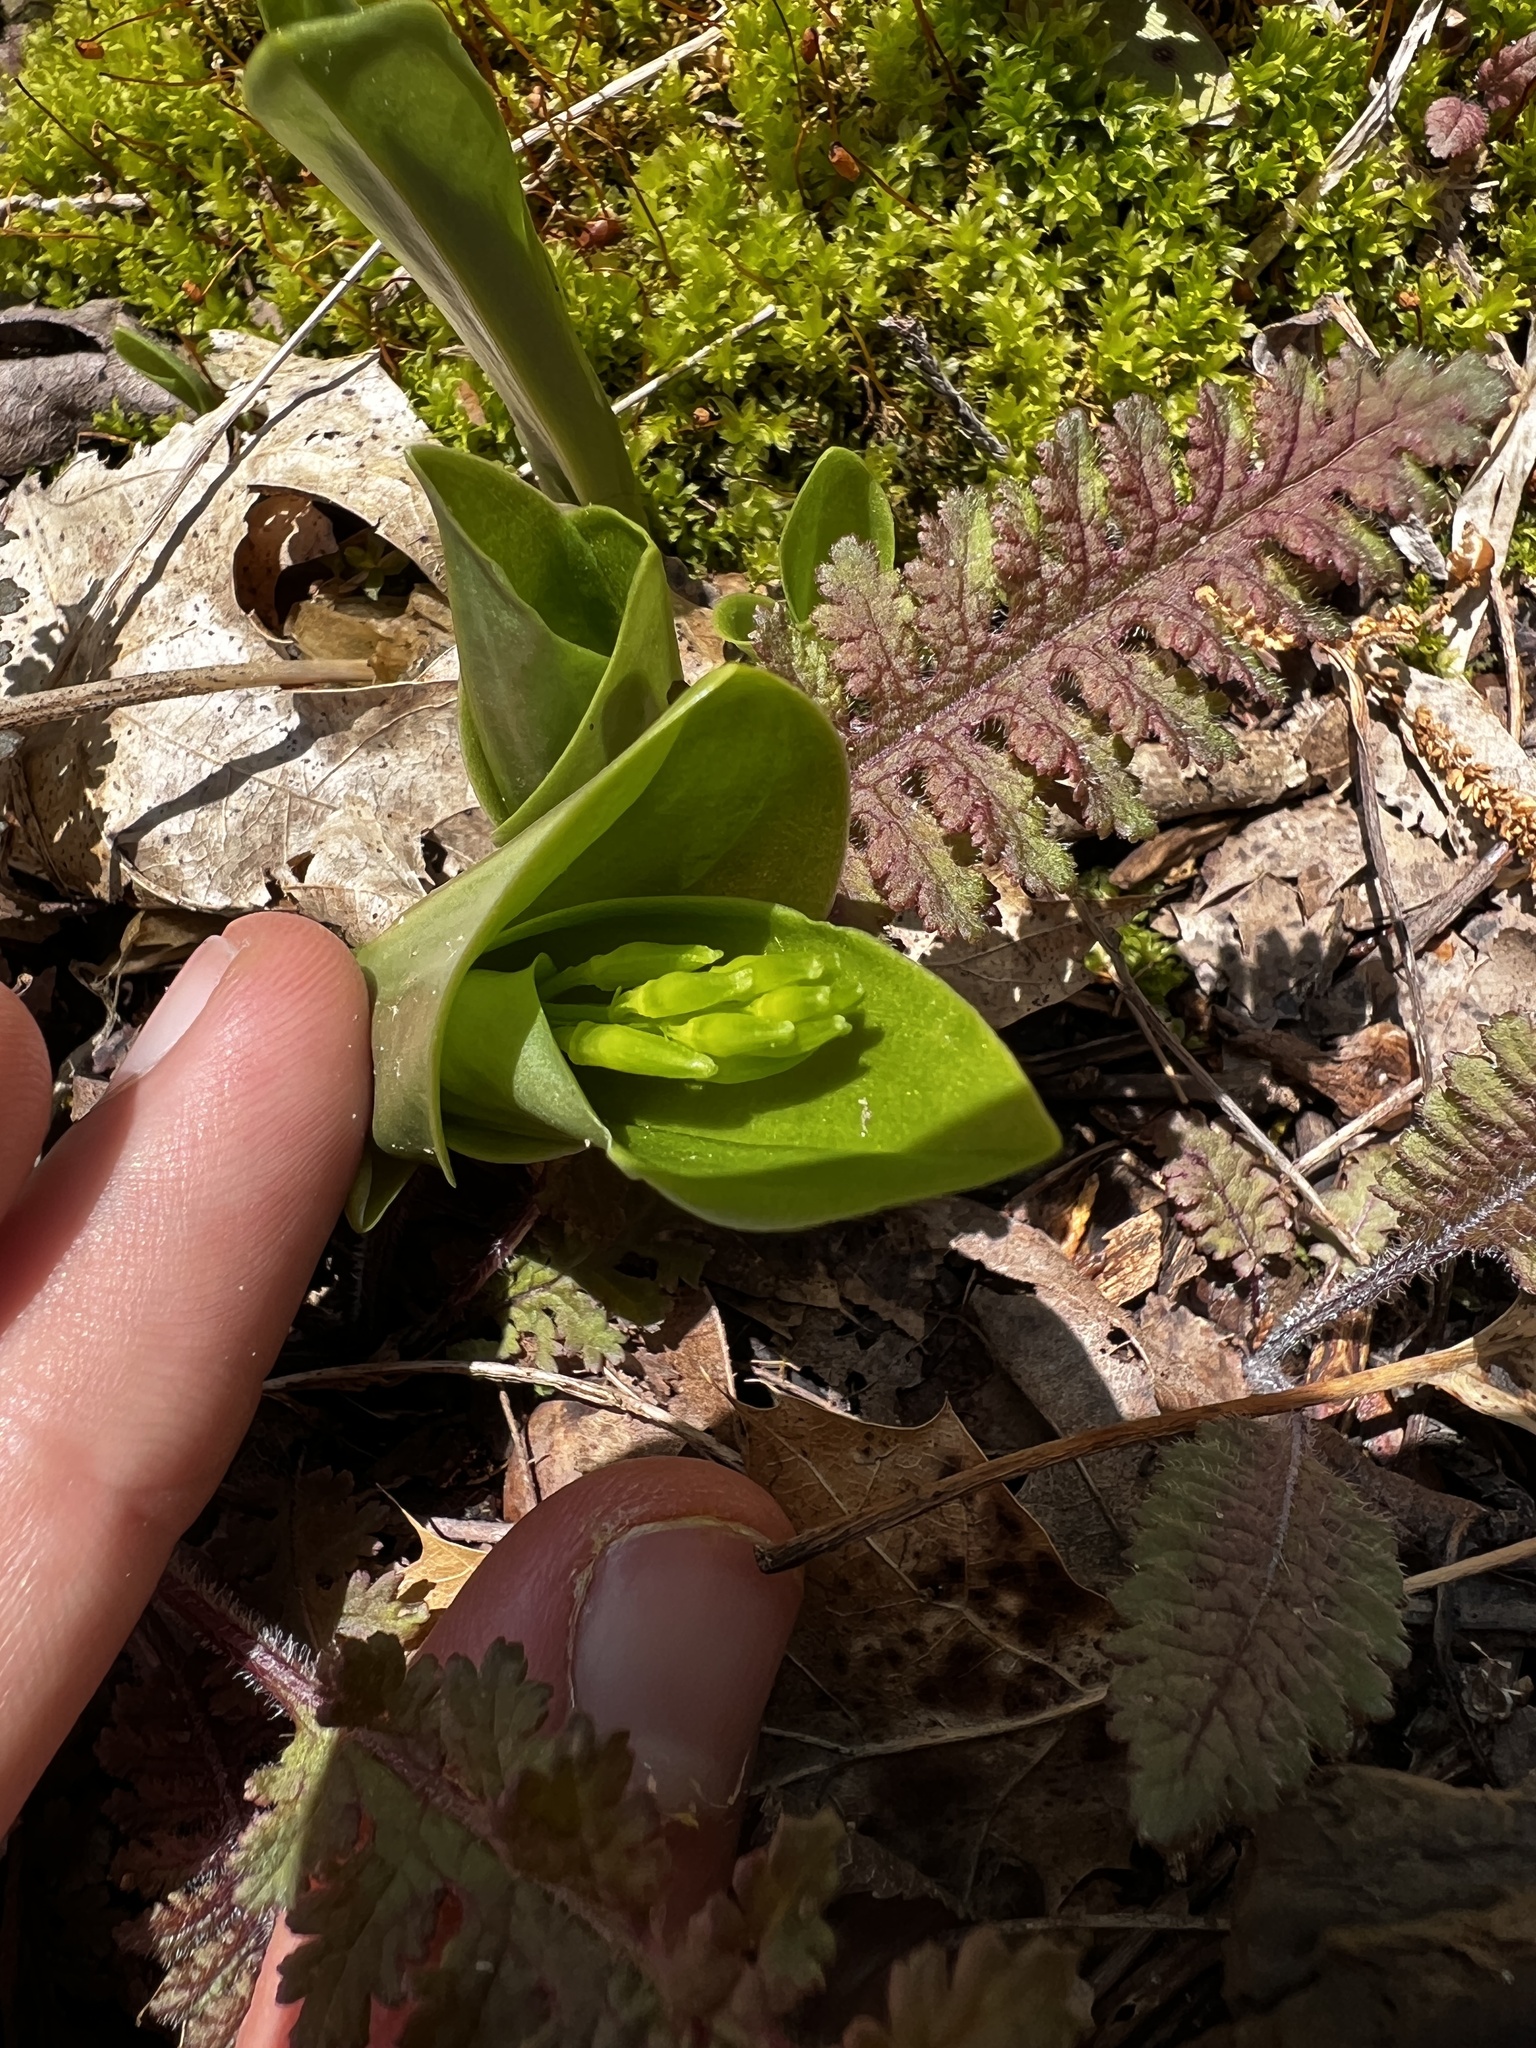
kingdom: Plantae
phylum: Tracheophyta
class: Liliopsida
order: Asparagales
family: Orchidaceae
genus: Liparis
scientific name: Liparis liliifolia
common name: Brown wide-lip orchid
